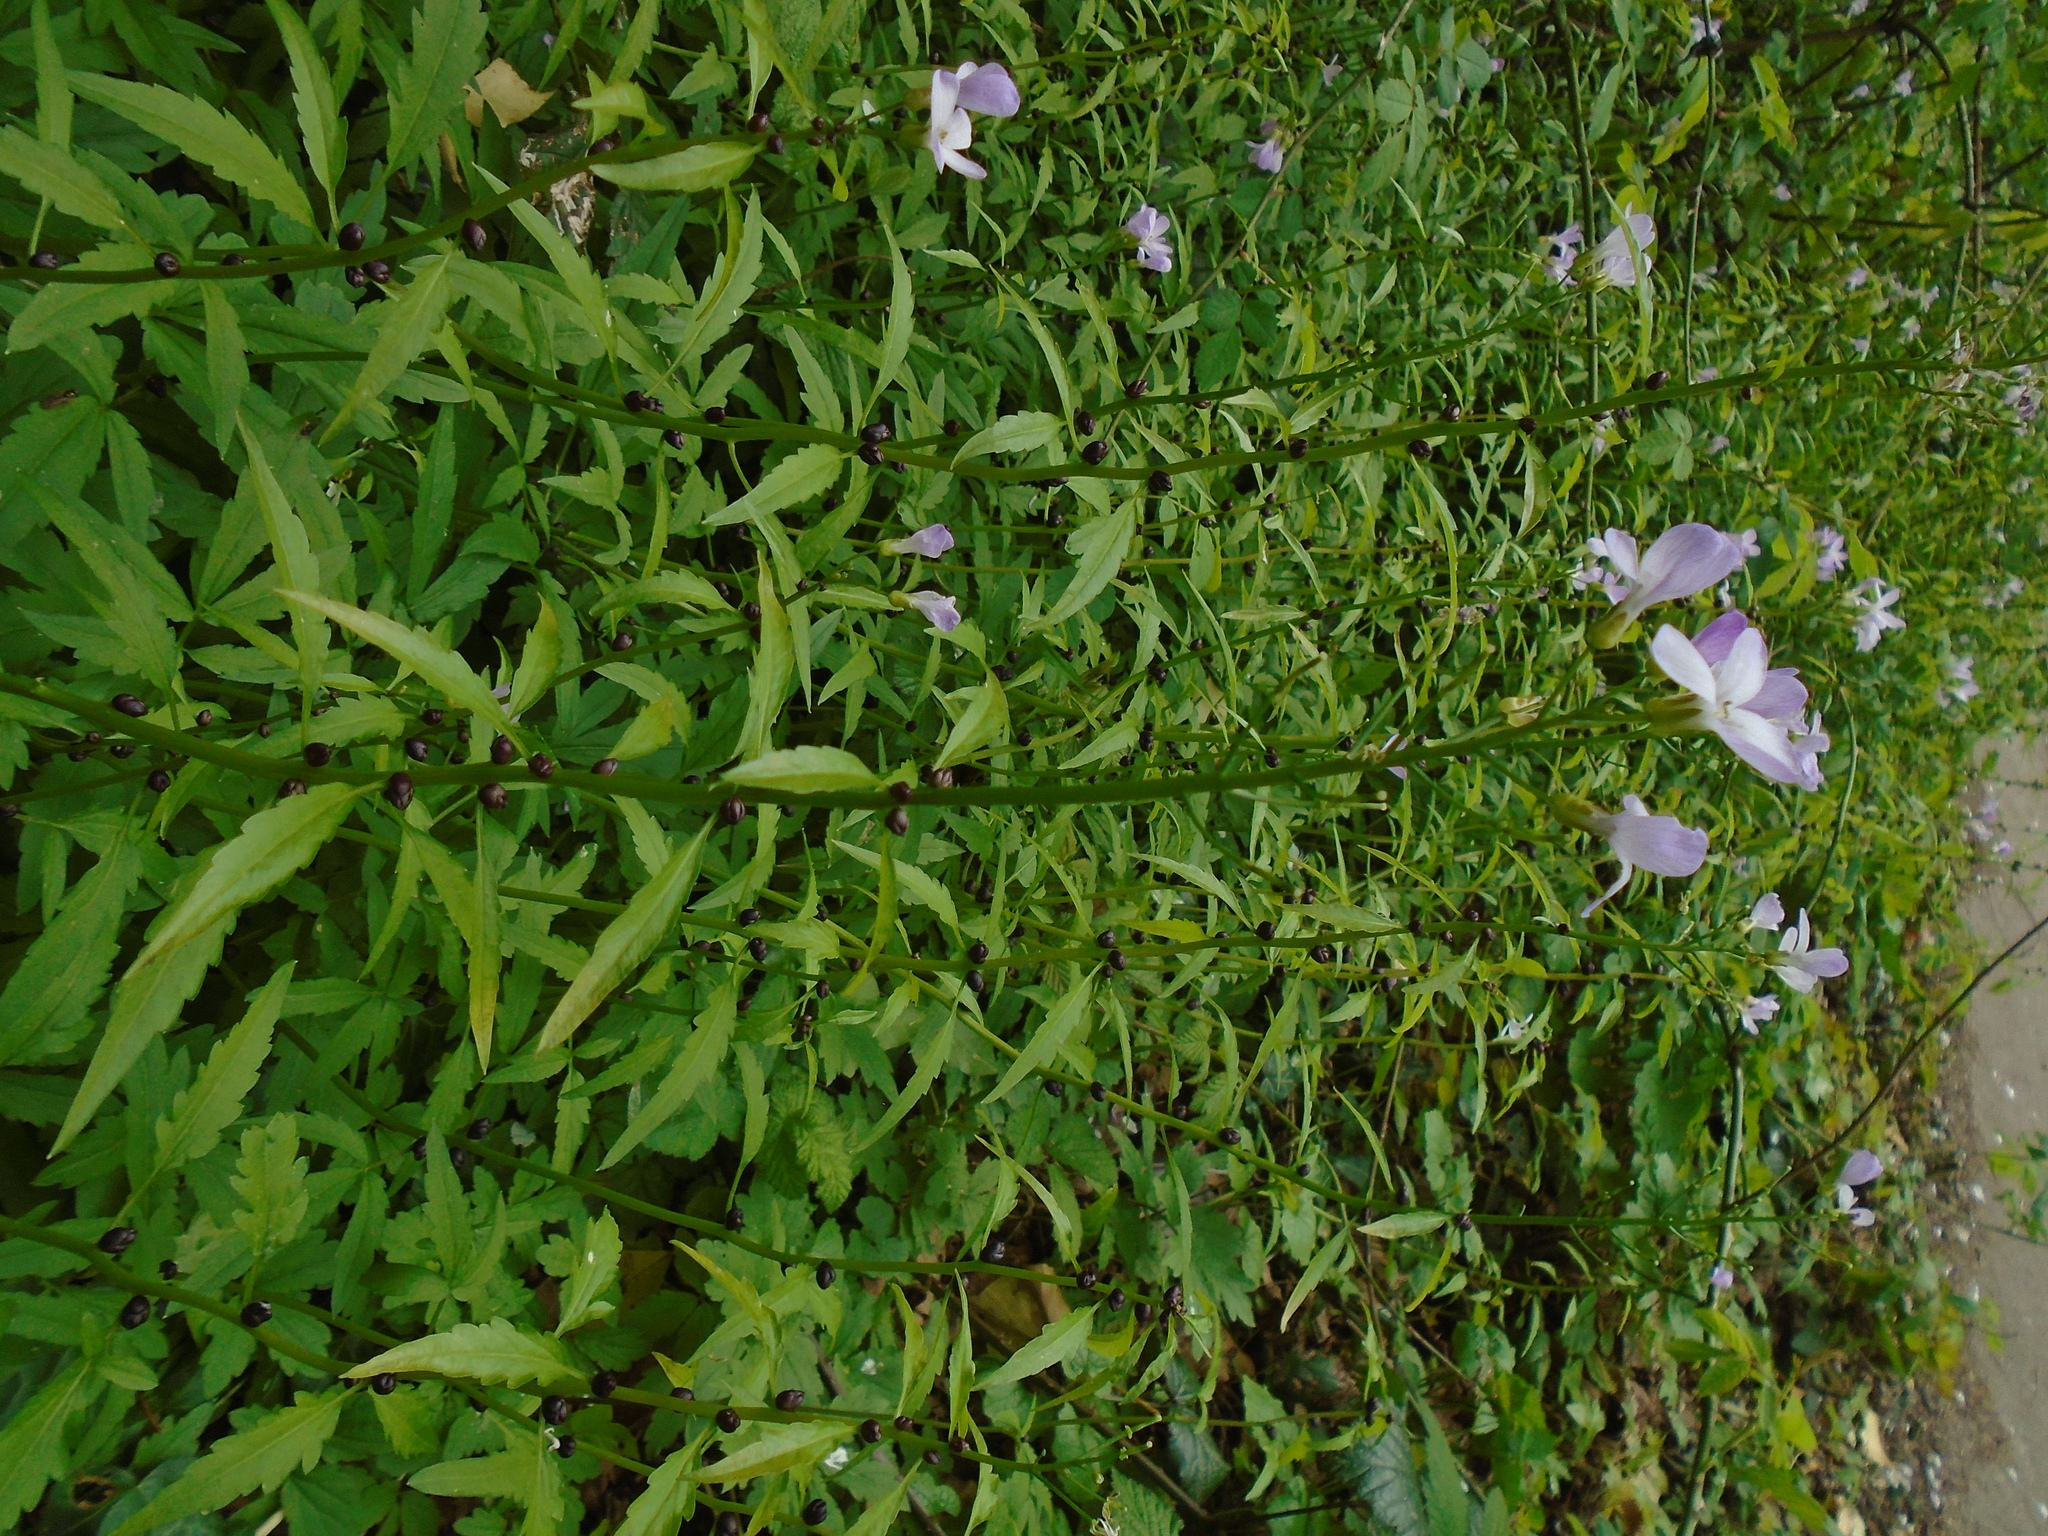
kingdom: Plantae
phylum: Tracheophyta
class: Magnoliopsida
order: Brassicales
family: Brassicaceae
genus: Cardamine
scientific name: Cardamine bulbifera
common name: Coralroot bittercress
